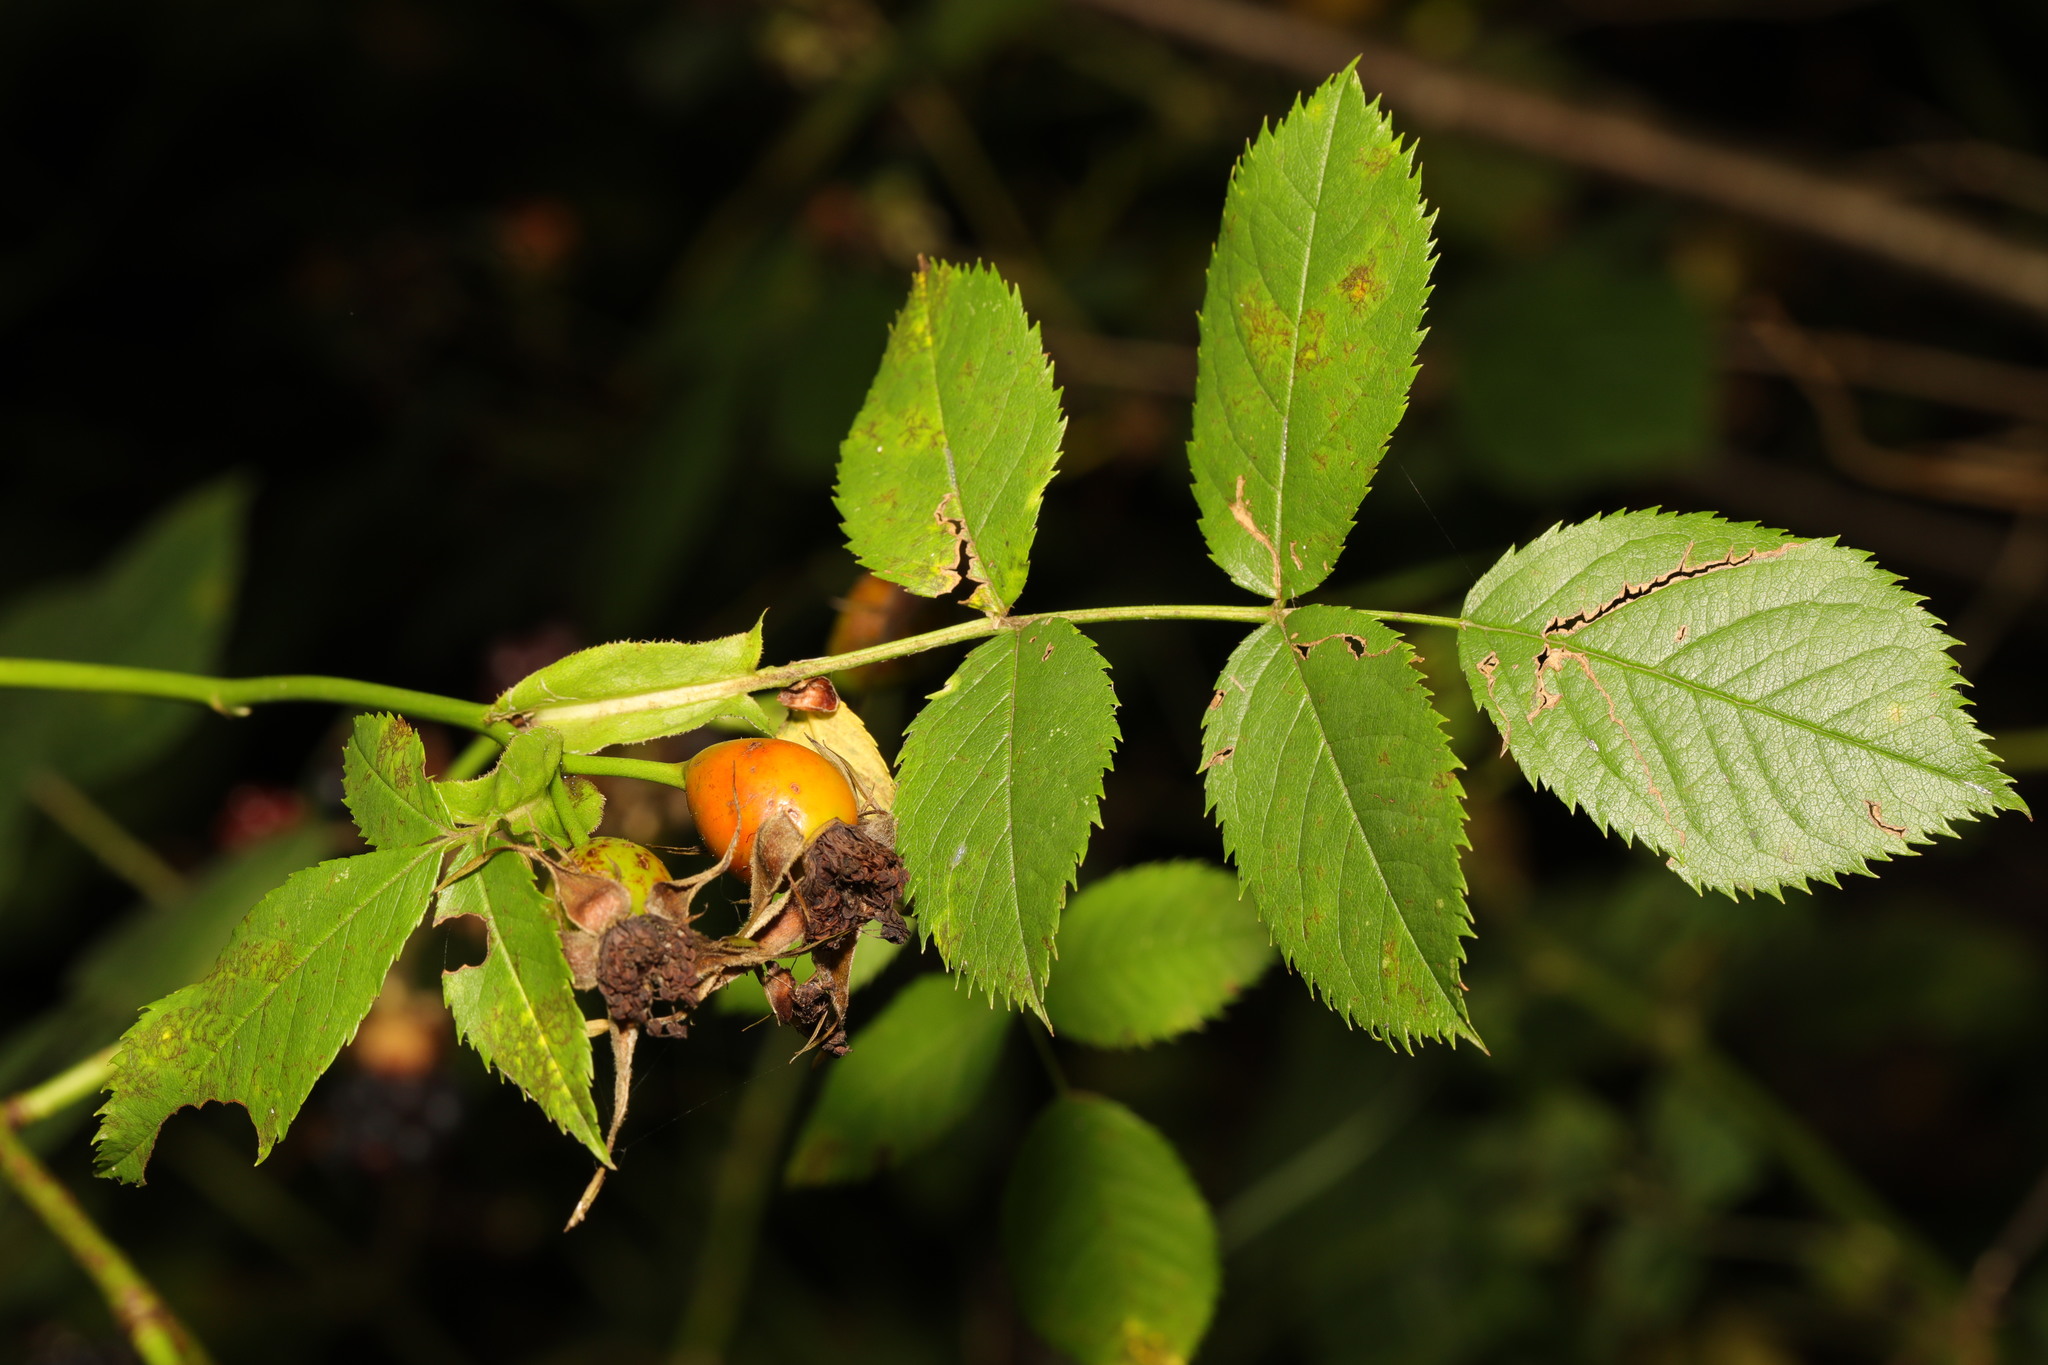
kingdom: Plantae
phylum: Tracheophyta
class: Magnoliopsida
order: Rosales
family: Rosaceae
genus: Rosa
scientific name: Rosa canina
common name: Dog rose
